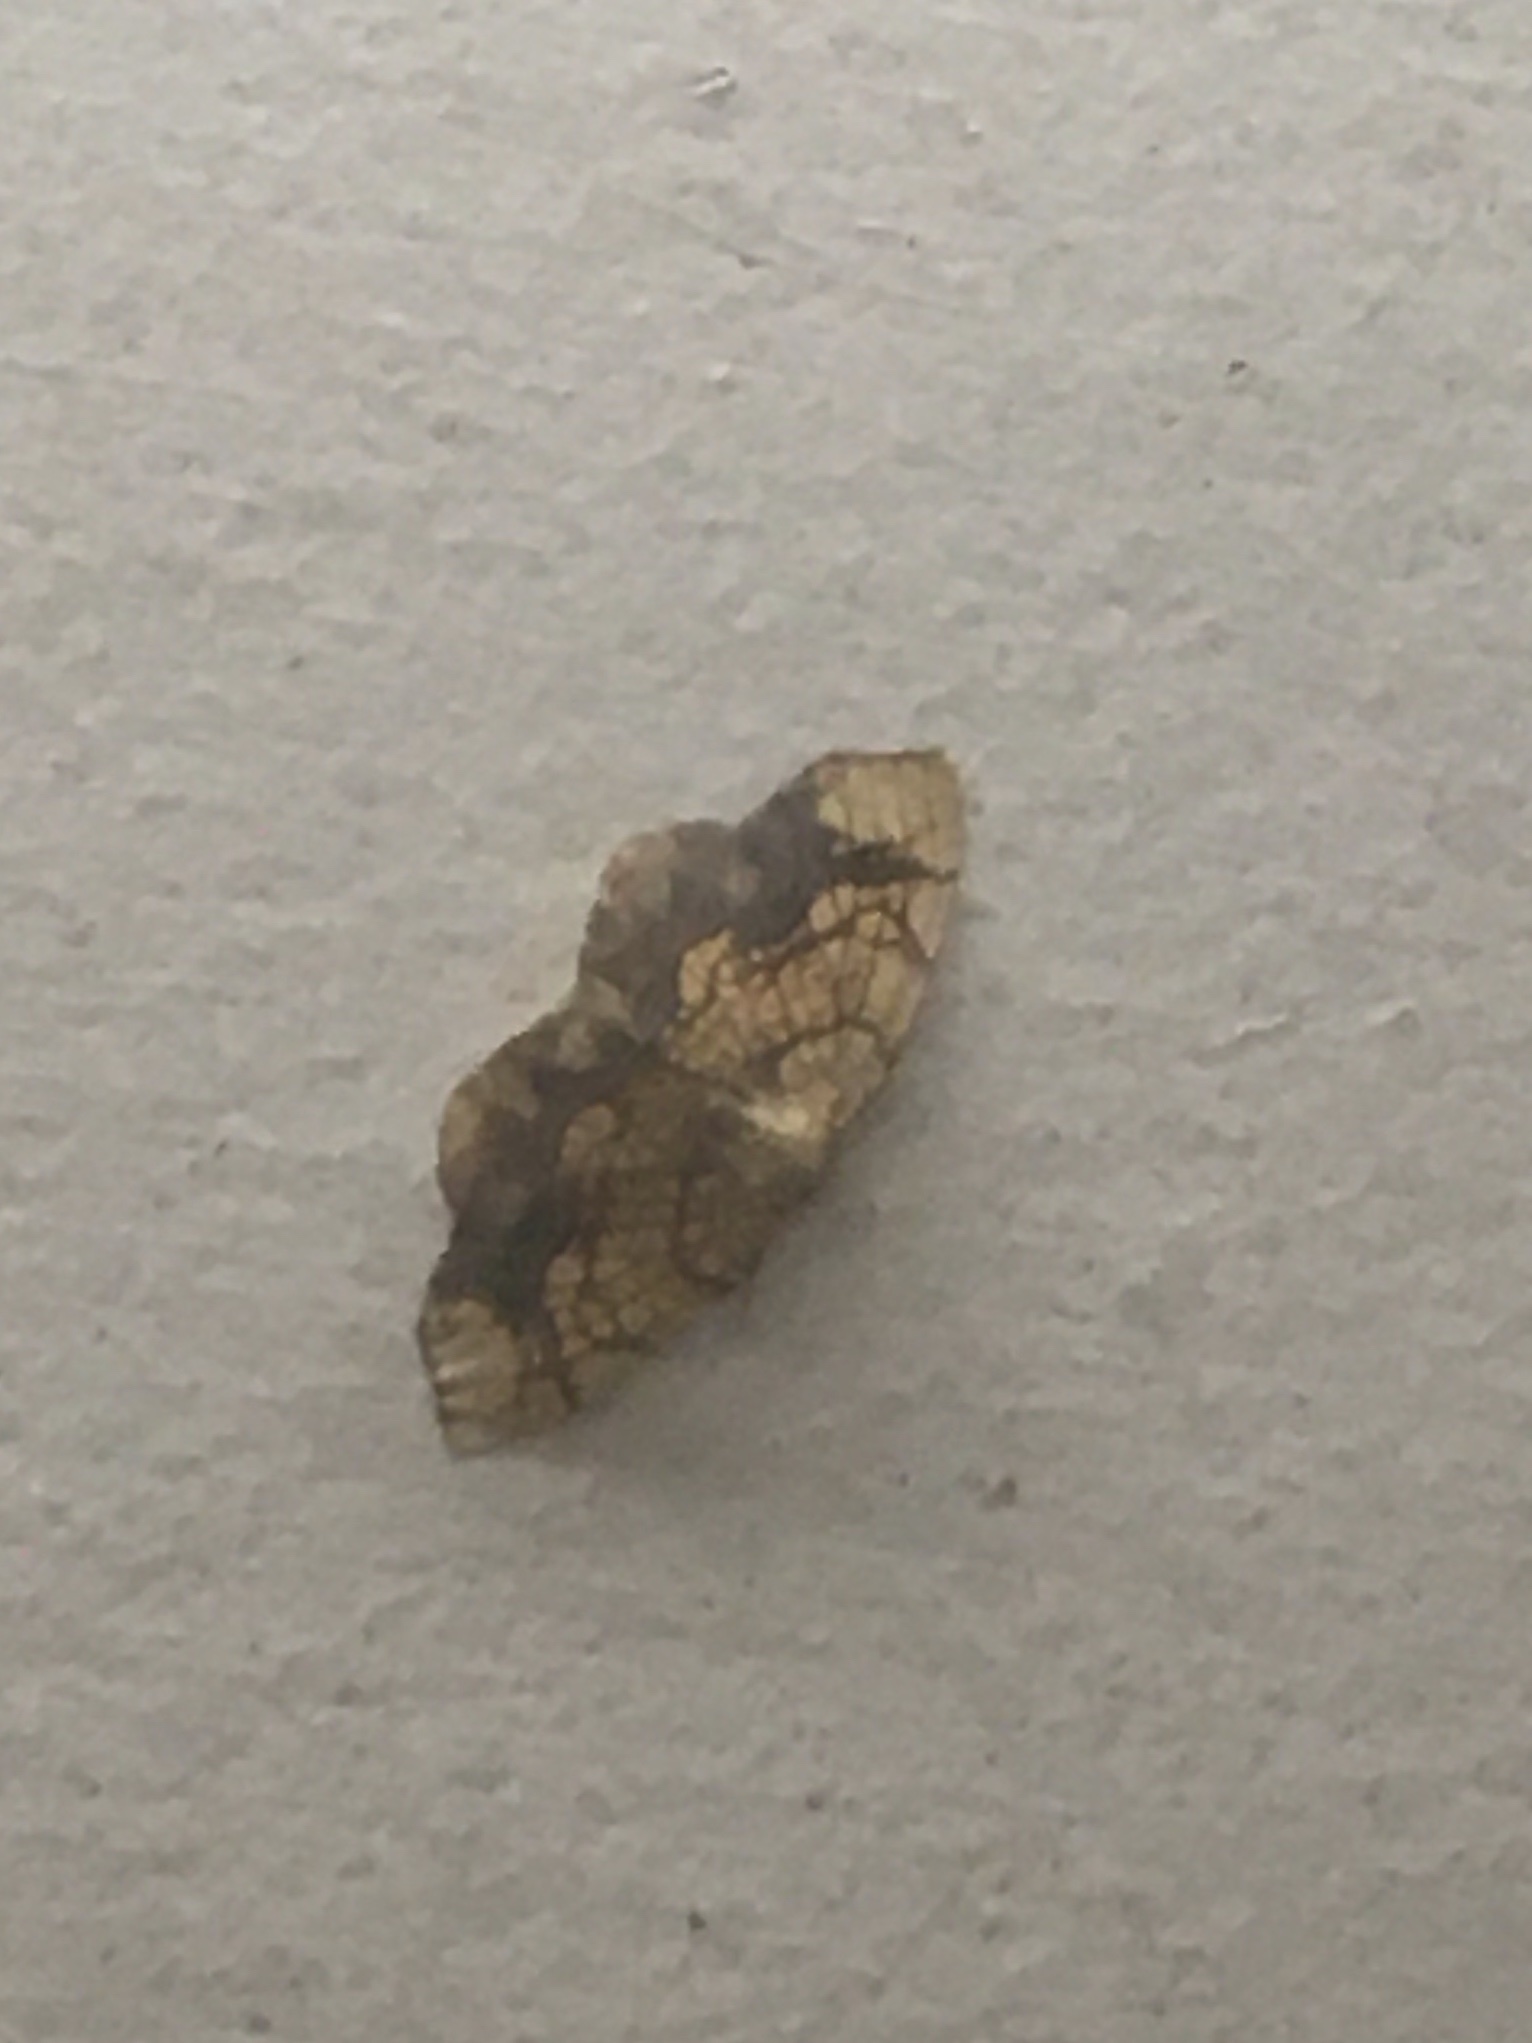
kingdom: Animalia
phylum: Arthropoda
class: Insecta
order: Lepidoptera
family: Geometridae
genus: Nematocampa
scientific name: Nematocampa resistaria
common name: Horned spanworm moth
